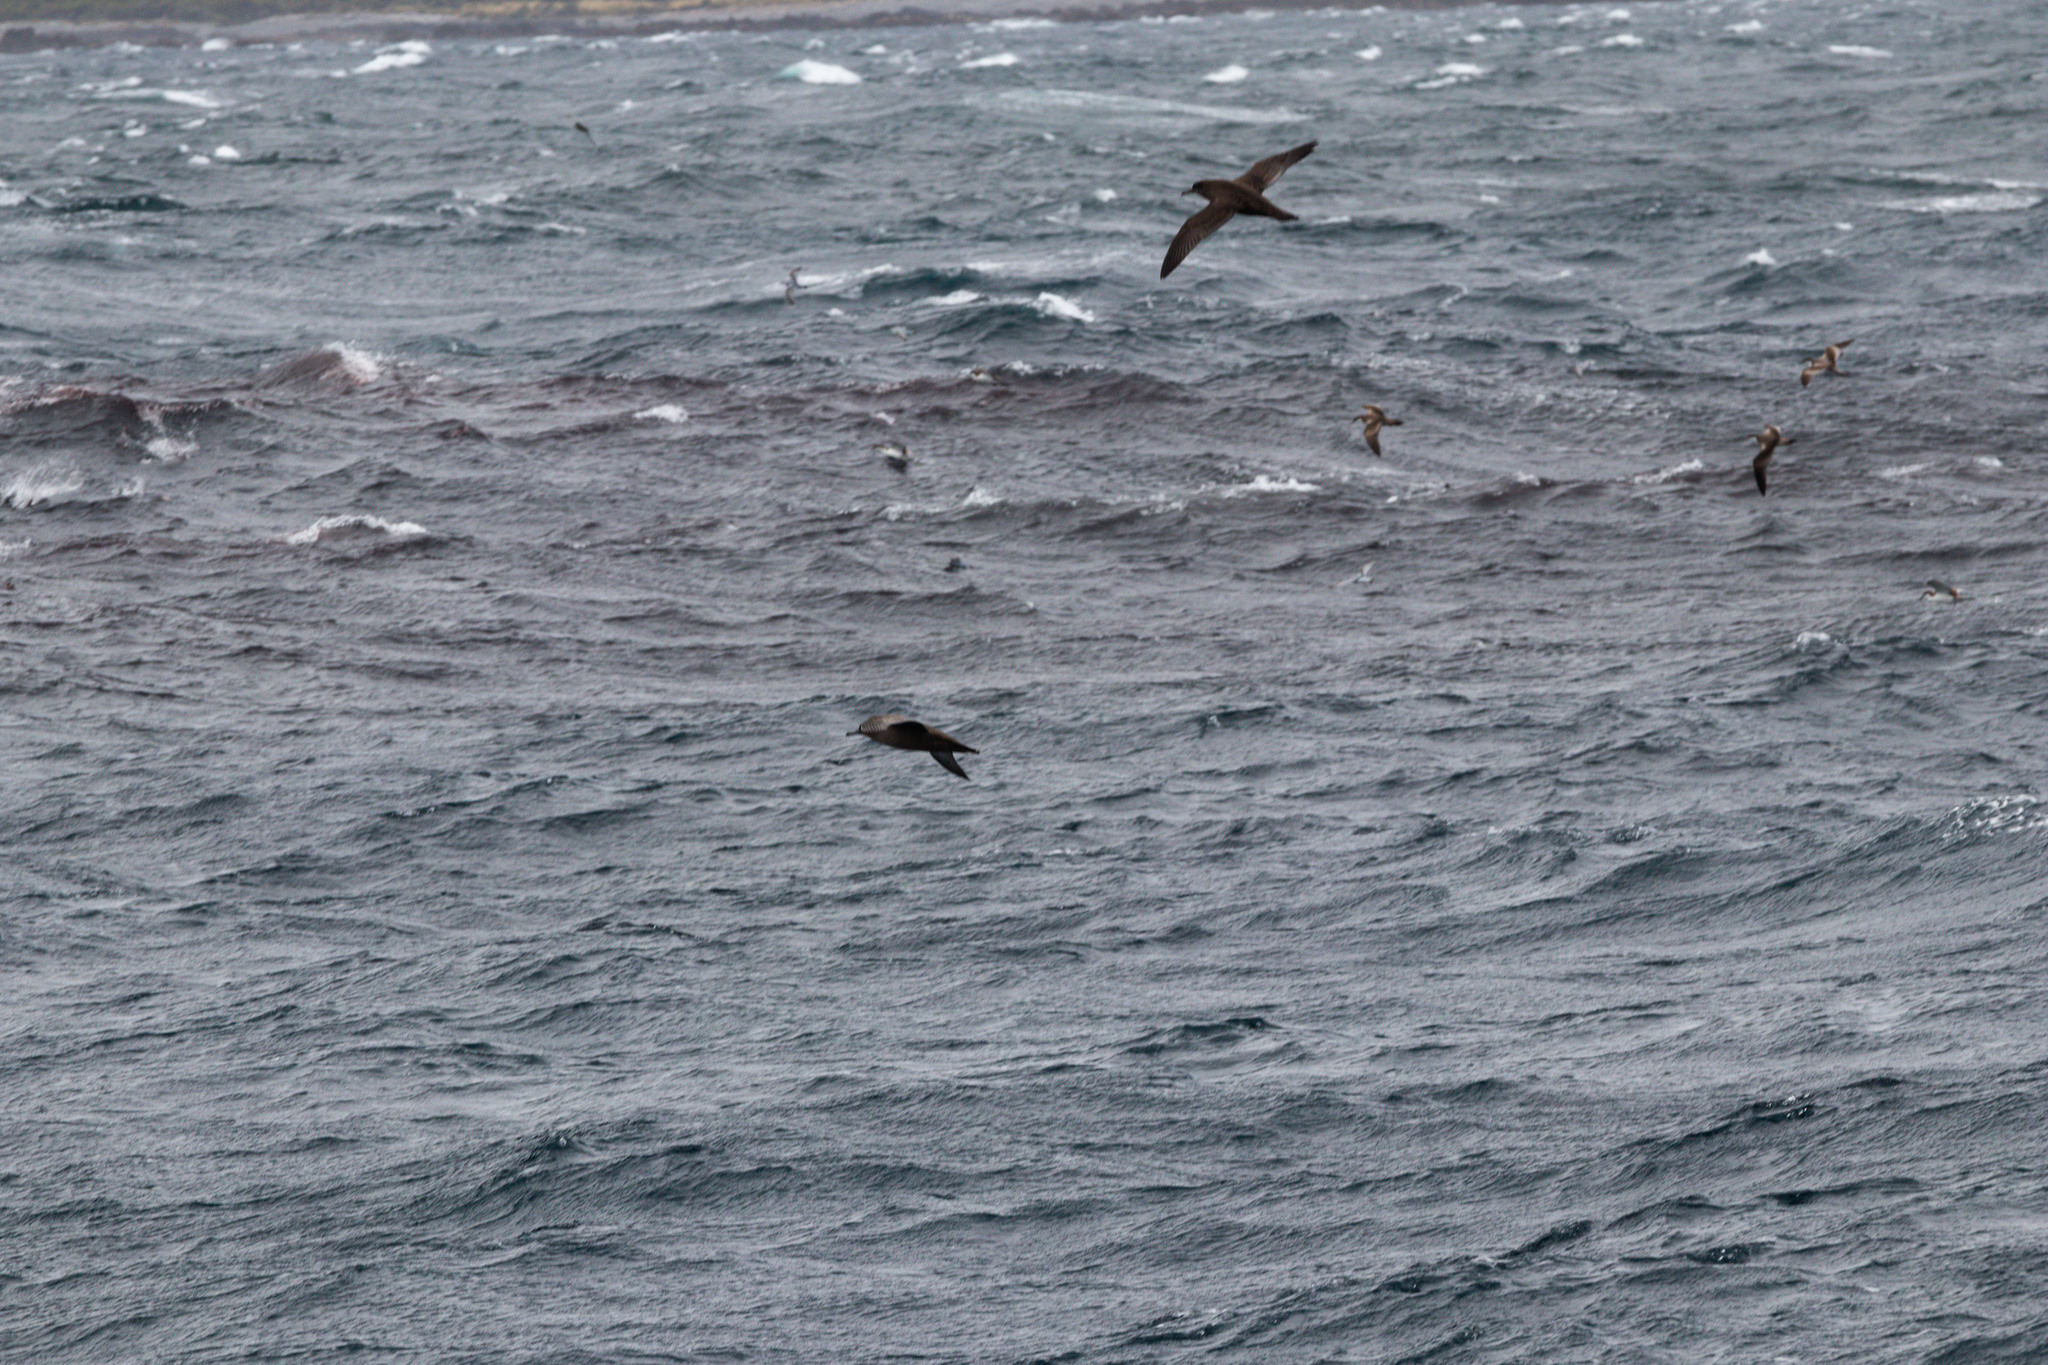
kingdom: Animalia
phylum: Chordata
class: Aves
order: Procellariiformes
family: Procellariidae
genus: Puffinus
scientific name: Puffinus griseus
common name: Sooty shearwater
